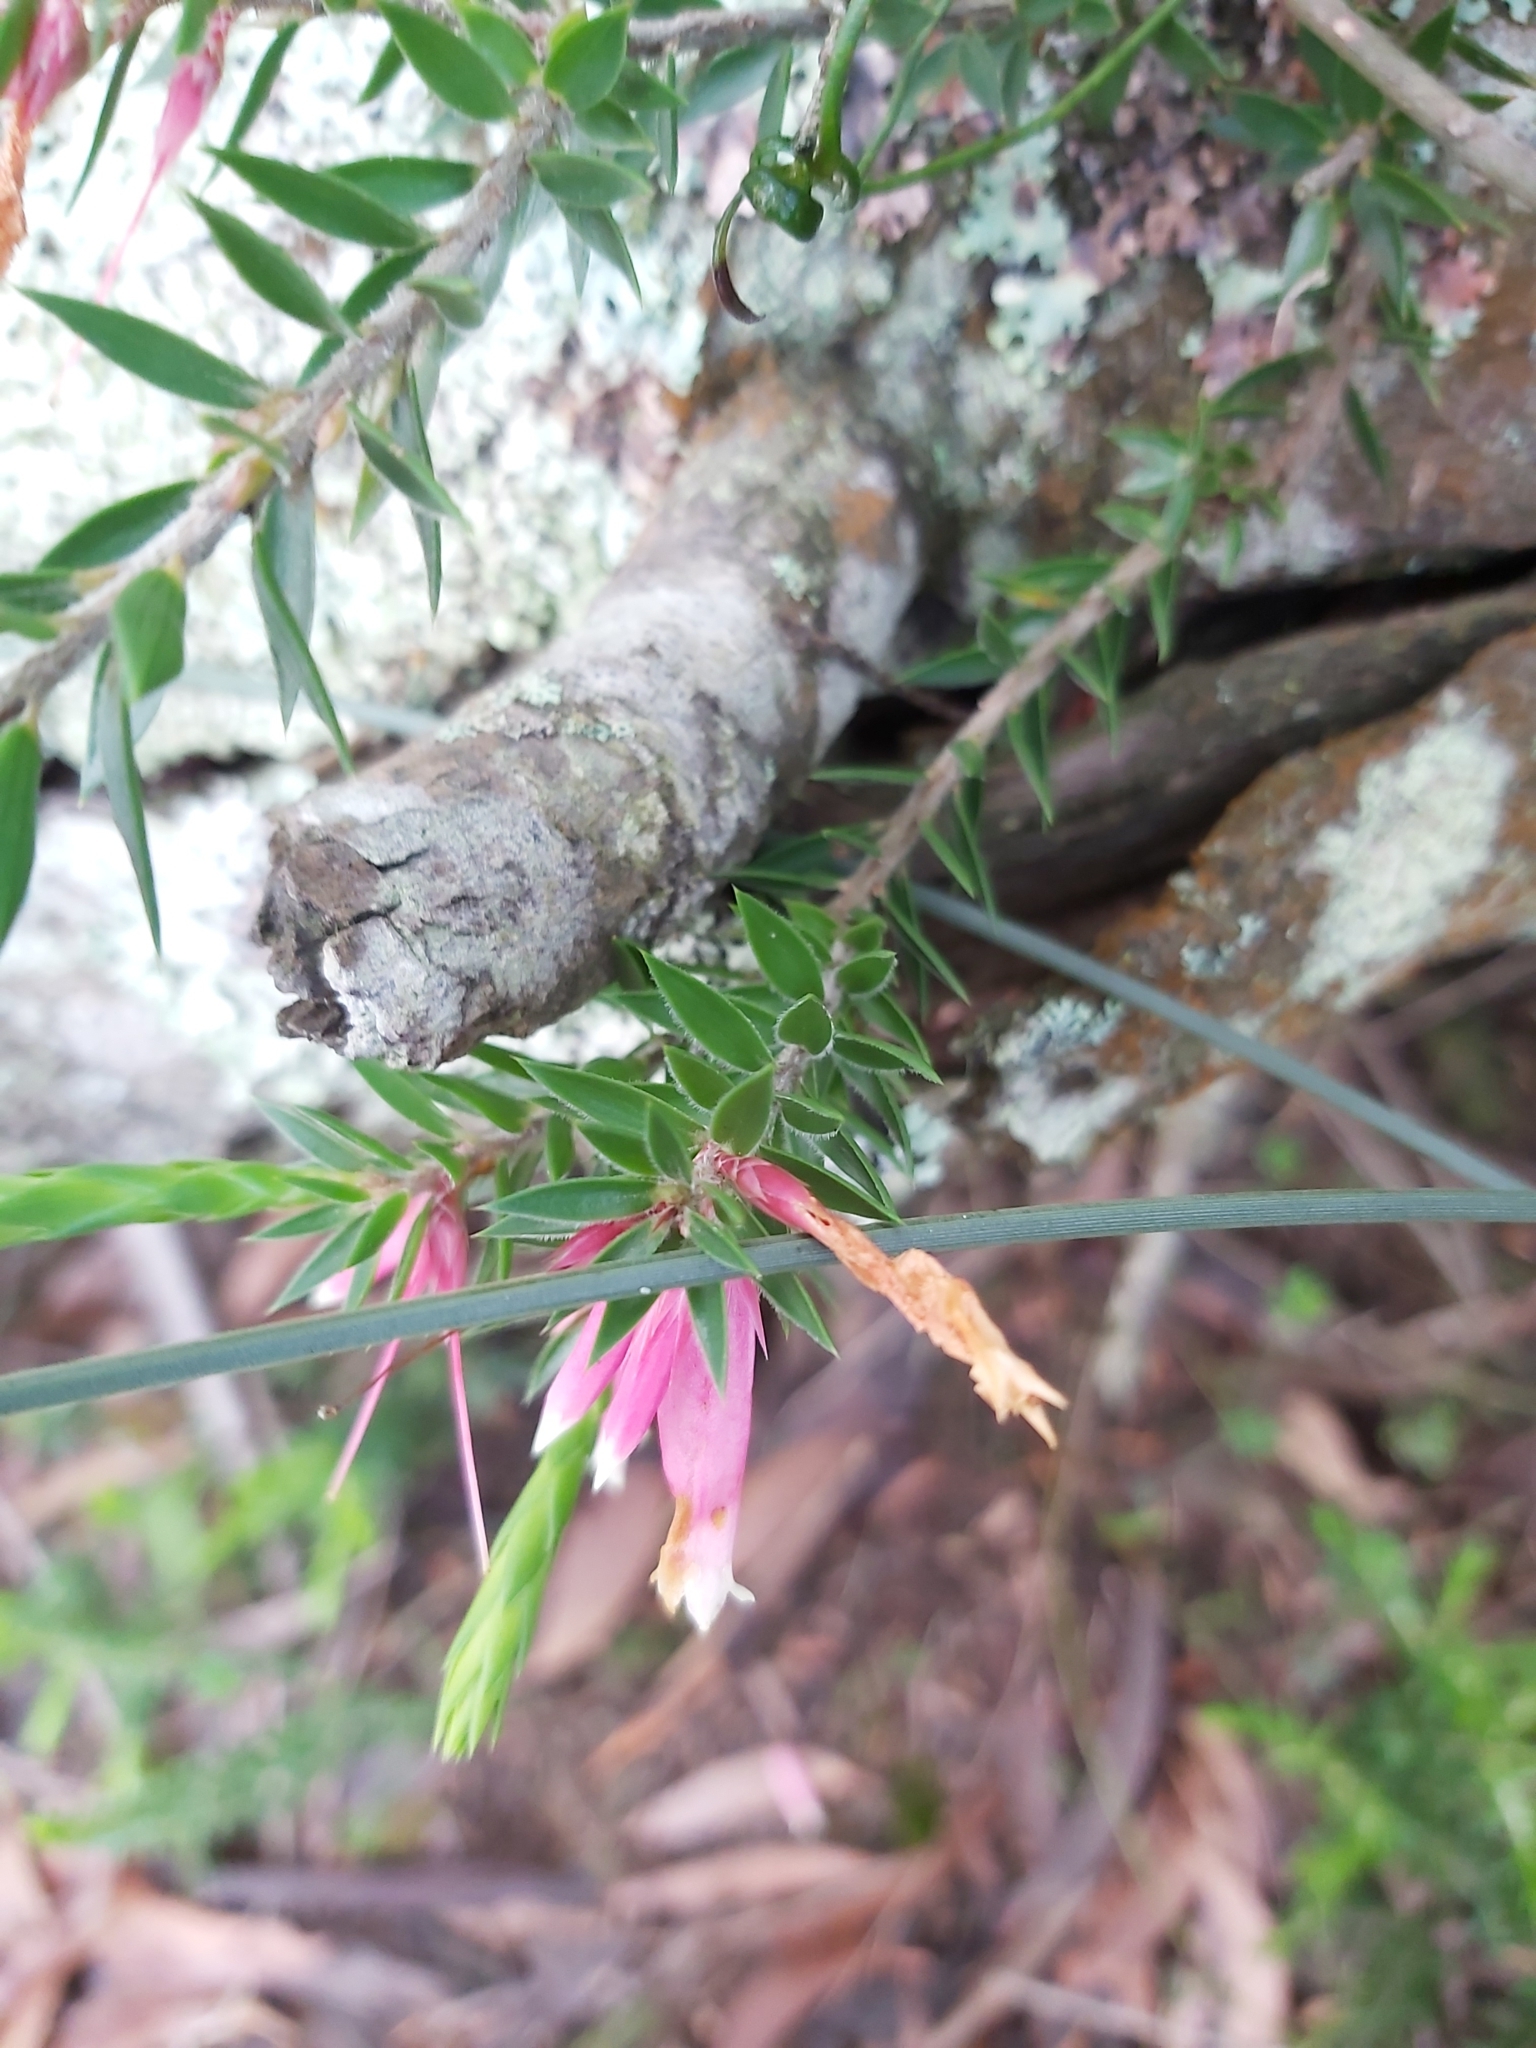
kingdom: Plantae
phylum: Tracheophyta
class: Magnoliopsida
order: Ericales
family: Ericaceae
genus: Epacris
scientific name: Epacris calvertiana
